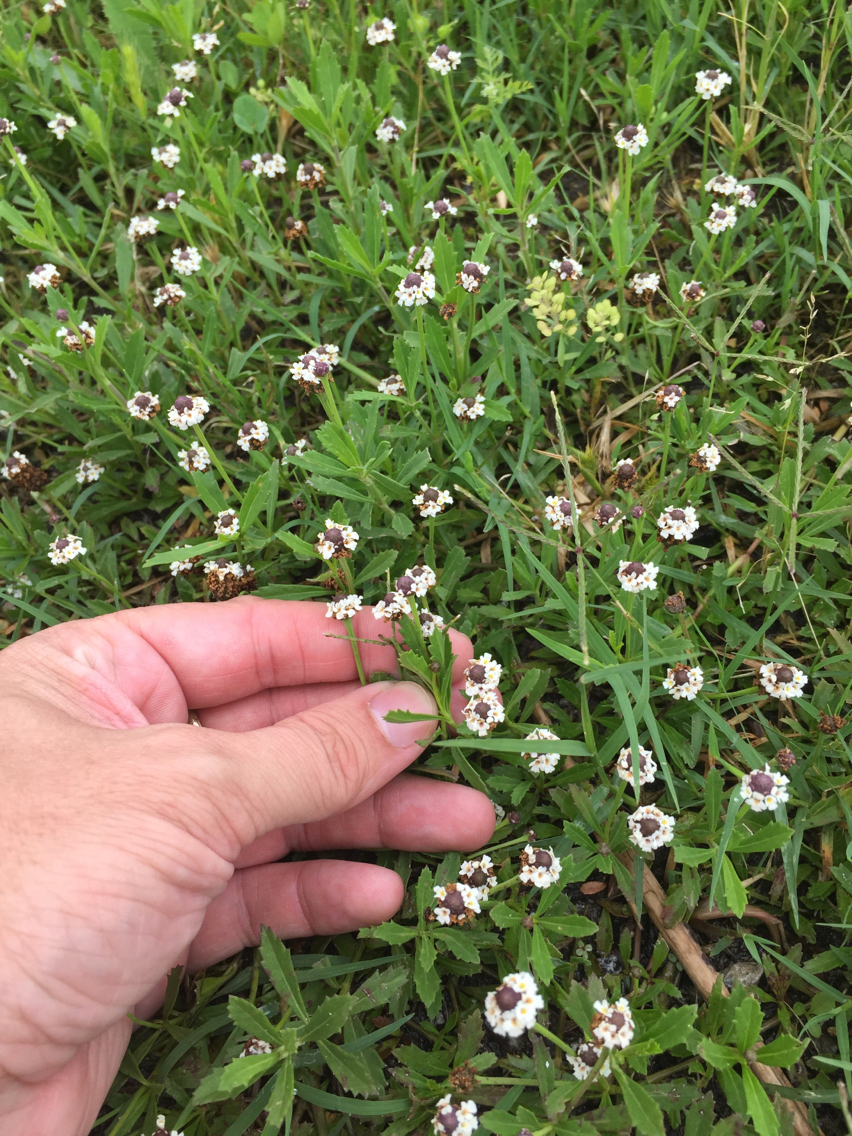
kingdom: Plantae
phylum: Tracheophyta
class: Magnoliopsida
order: Lamiales
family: Verbenaceae
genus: Phyla
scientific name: Phyla nodiflora
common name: Frogfruit
